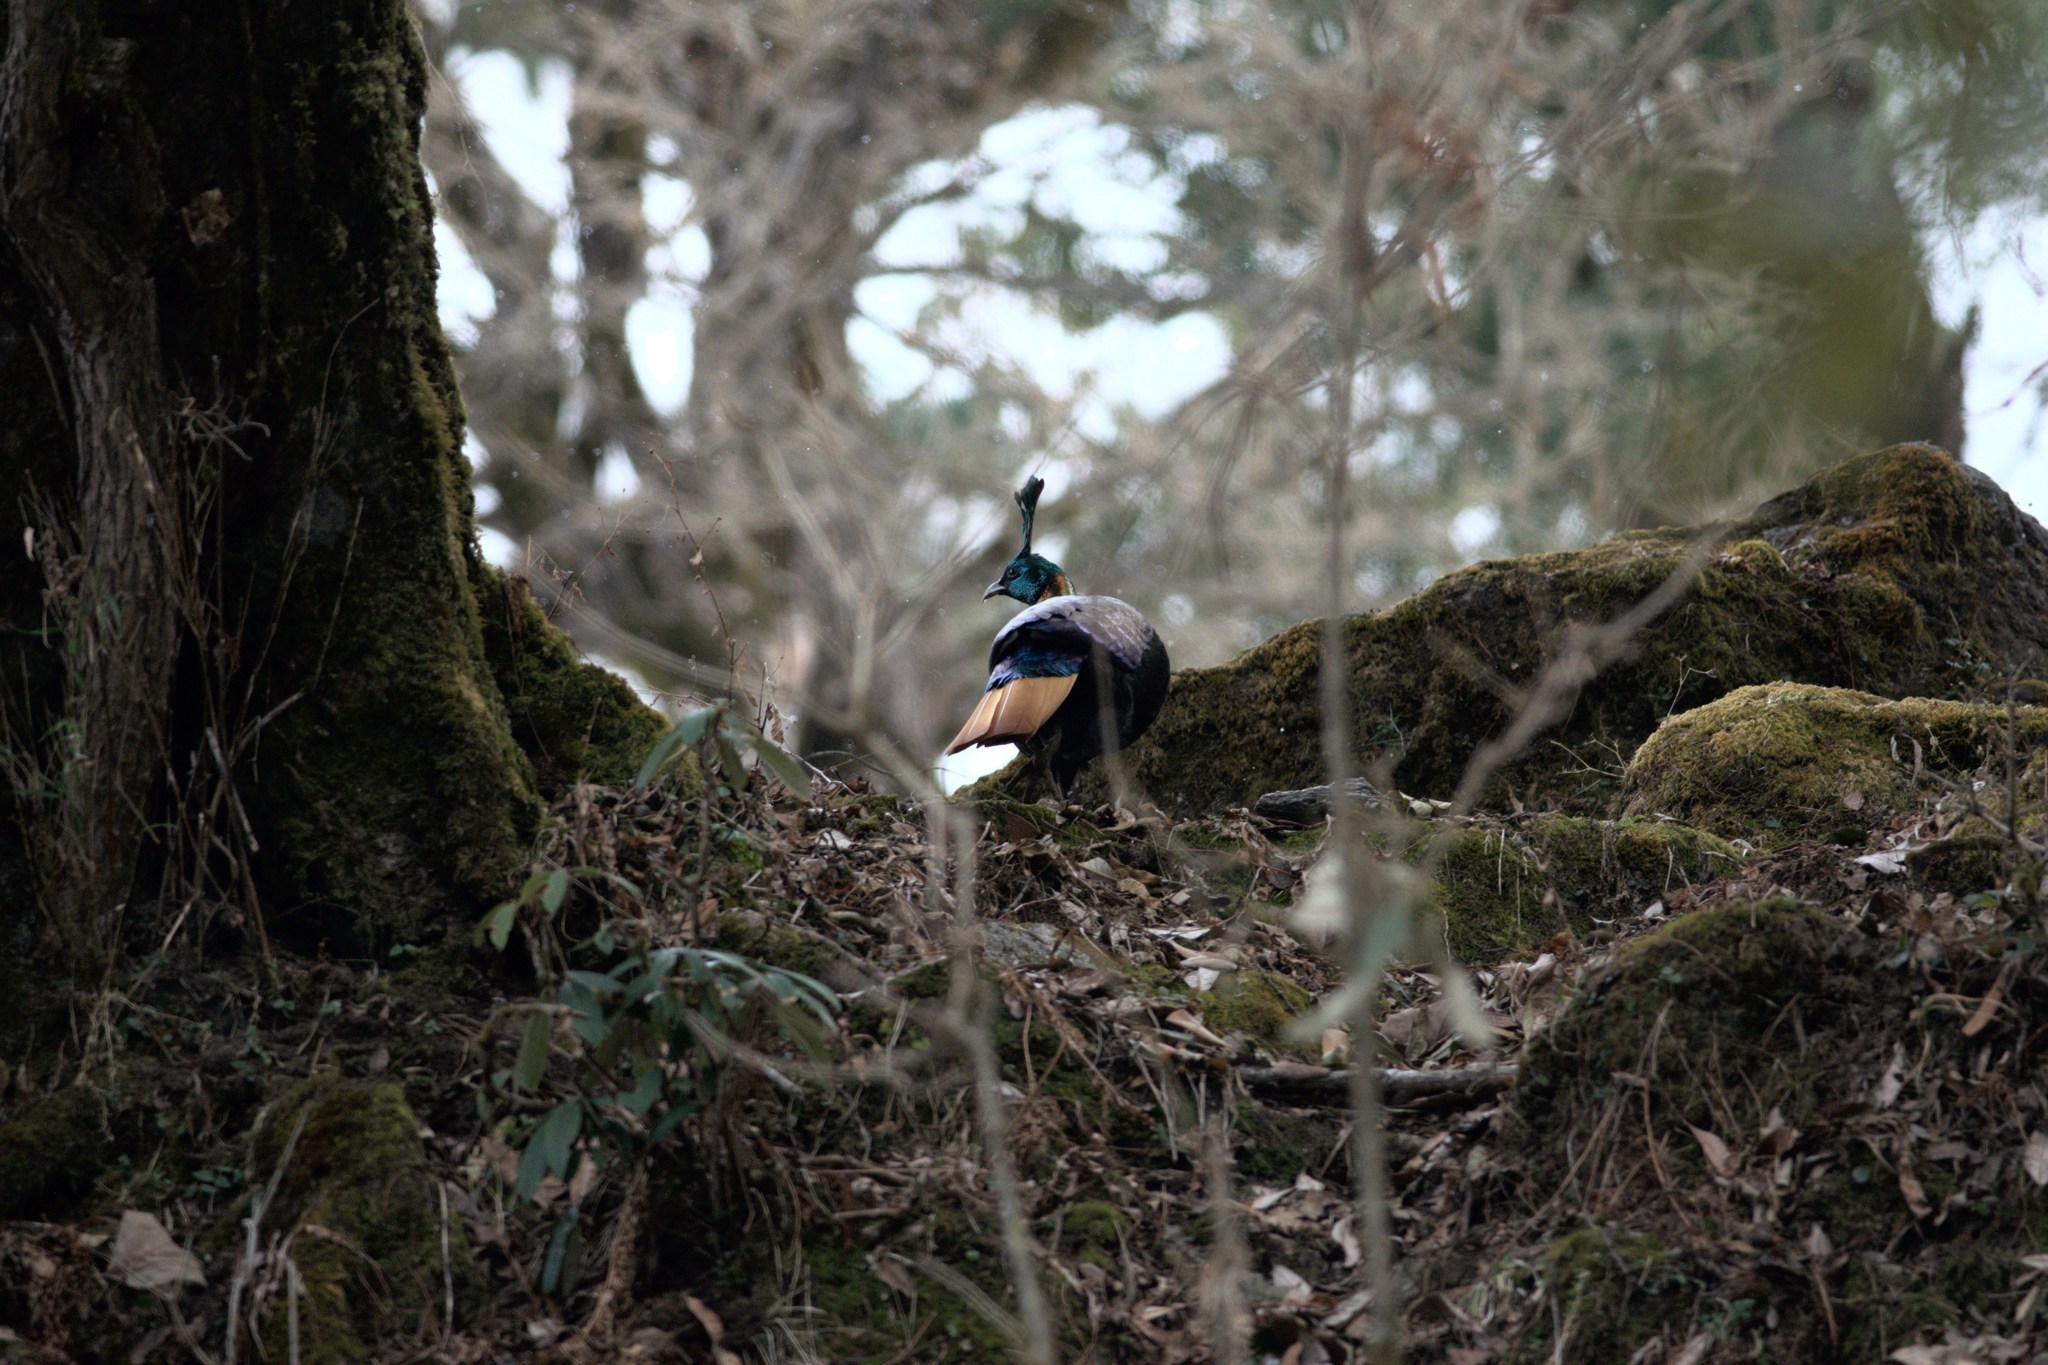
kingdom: Animalia
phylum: Chordata
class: Aves
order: Galliformes
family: Phasianidae
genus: Lophophorus
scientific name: Lophophorus impejanus
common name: Himalayan monal
